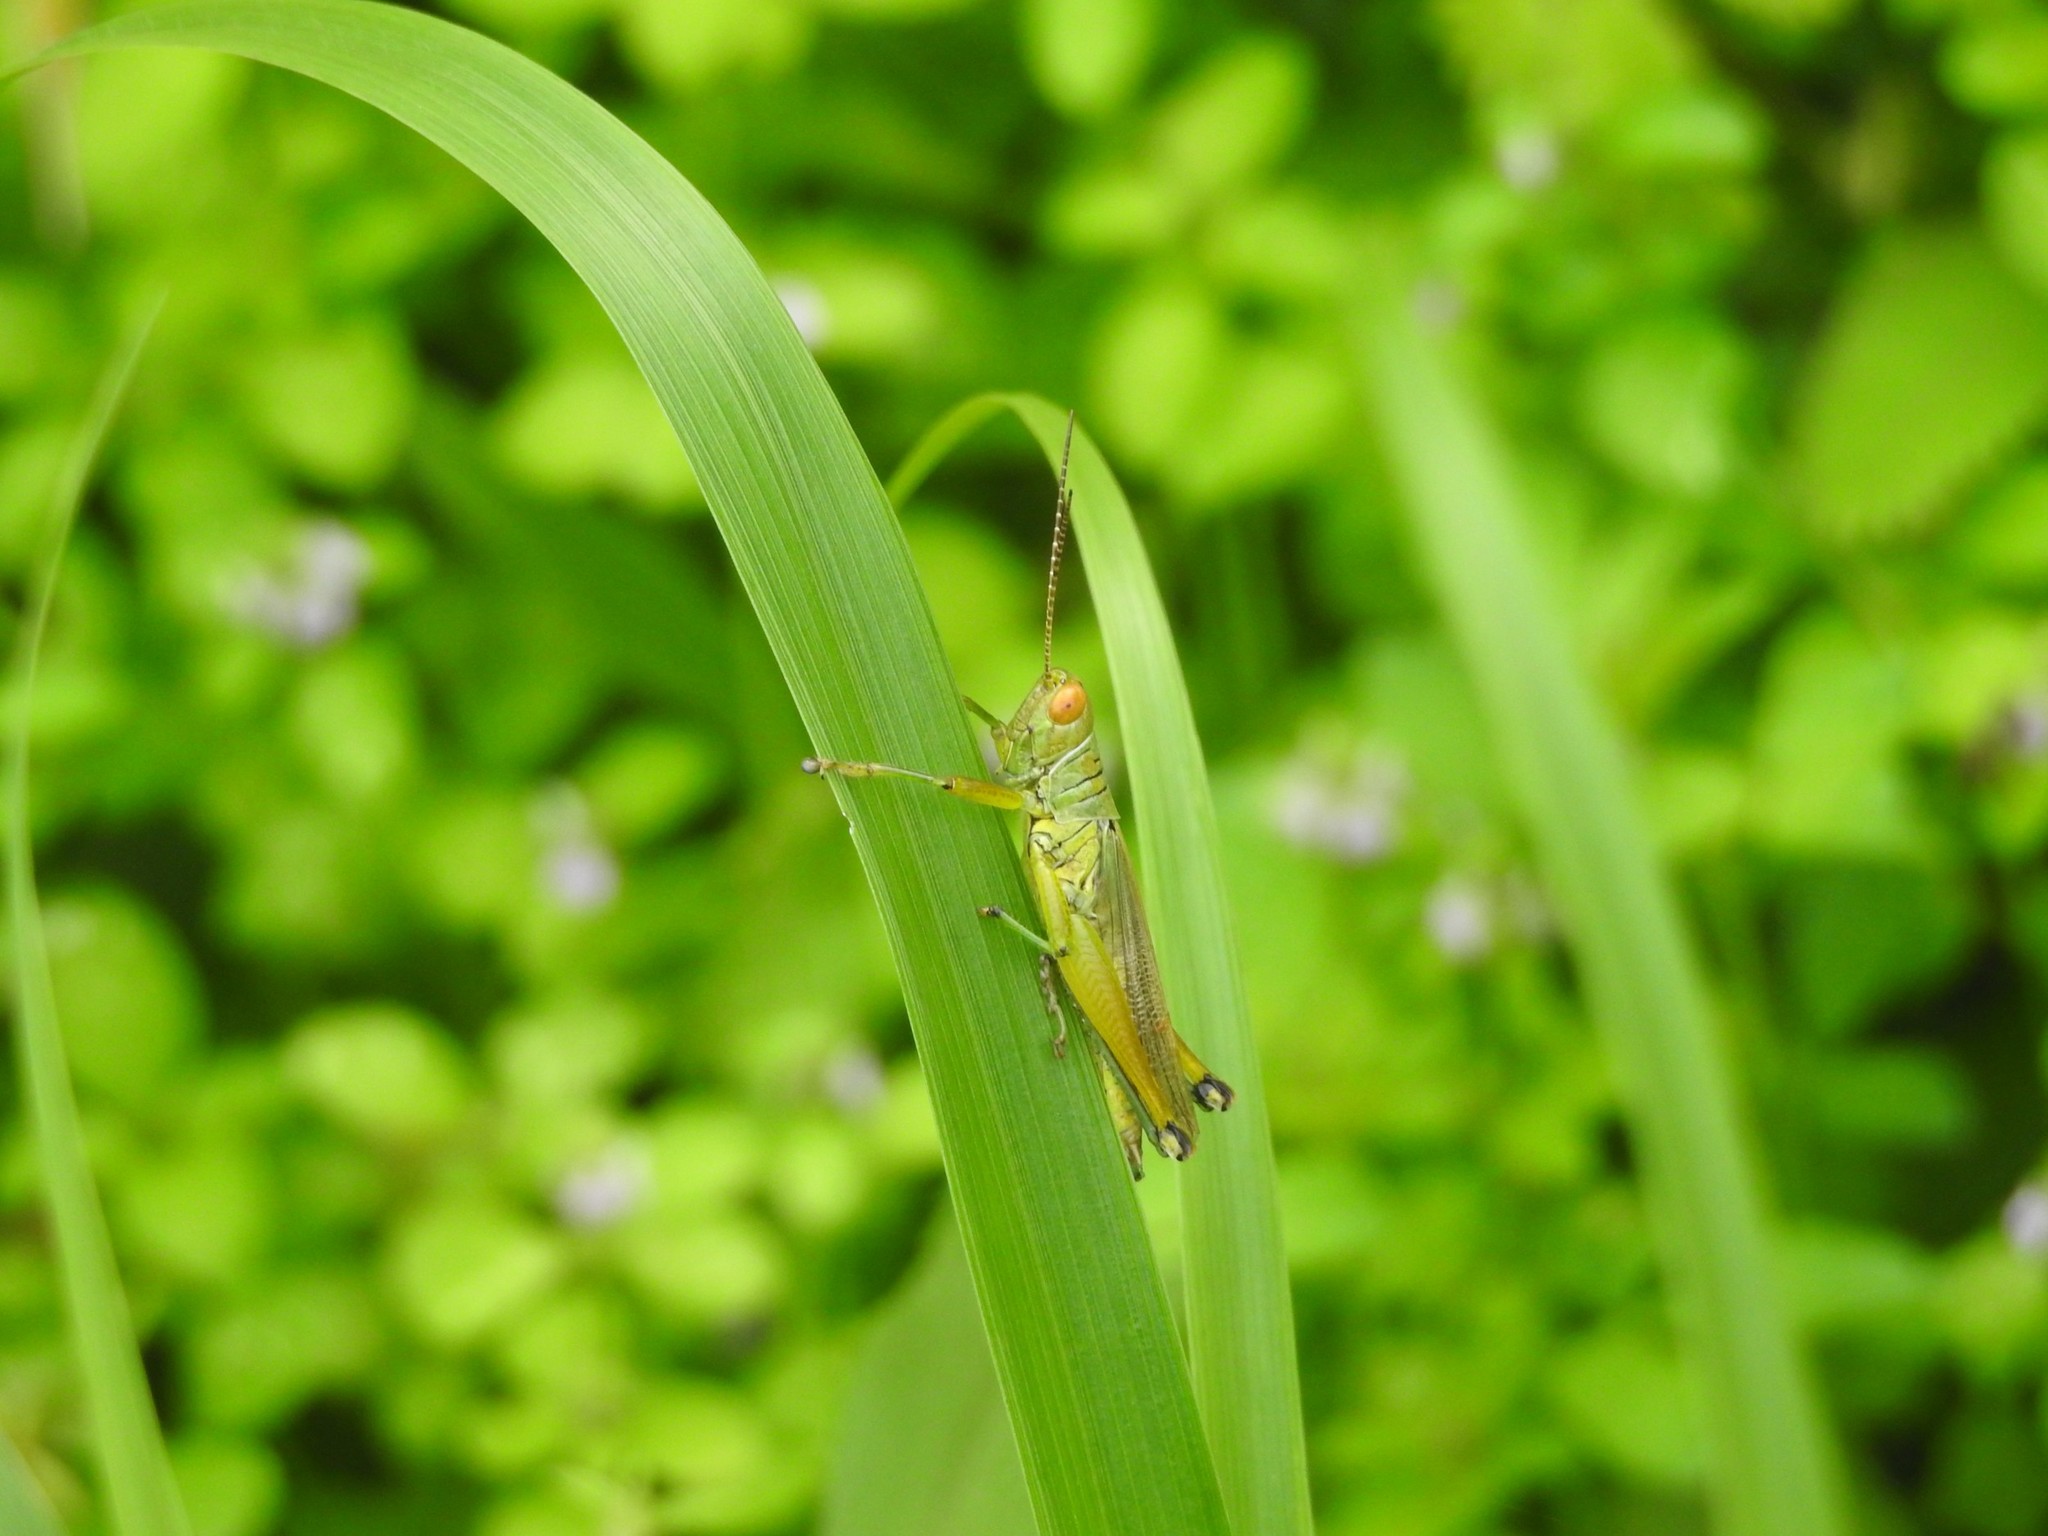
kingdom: Animalia
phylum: Arthropoda
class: Insecta
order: Orthoptera
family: Acrididae
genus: Hieroglyphus
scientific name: Hieroglyphus banian
